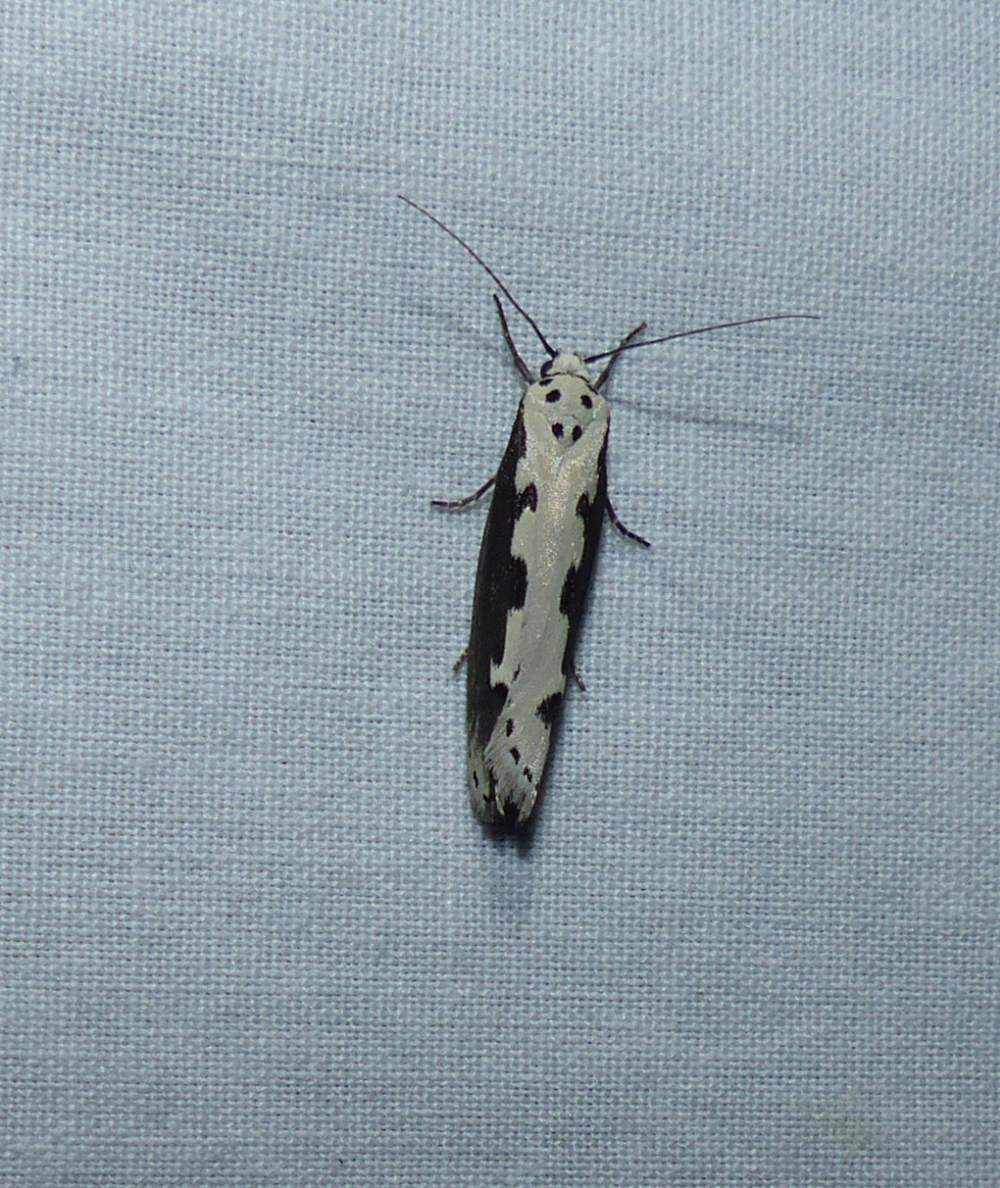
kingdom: Animalia
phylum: Arthropoda
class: Insecta
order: Lepidoptera
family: Ethmiidae
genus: Ethmia
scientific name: Ethmia bipunctella
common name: Bordered ermel
